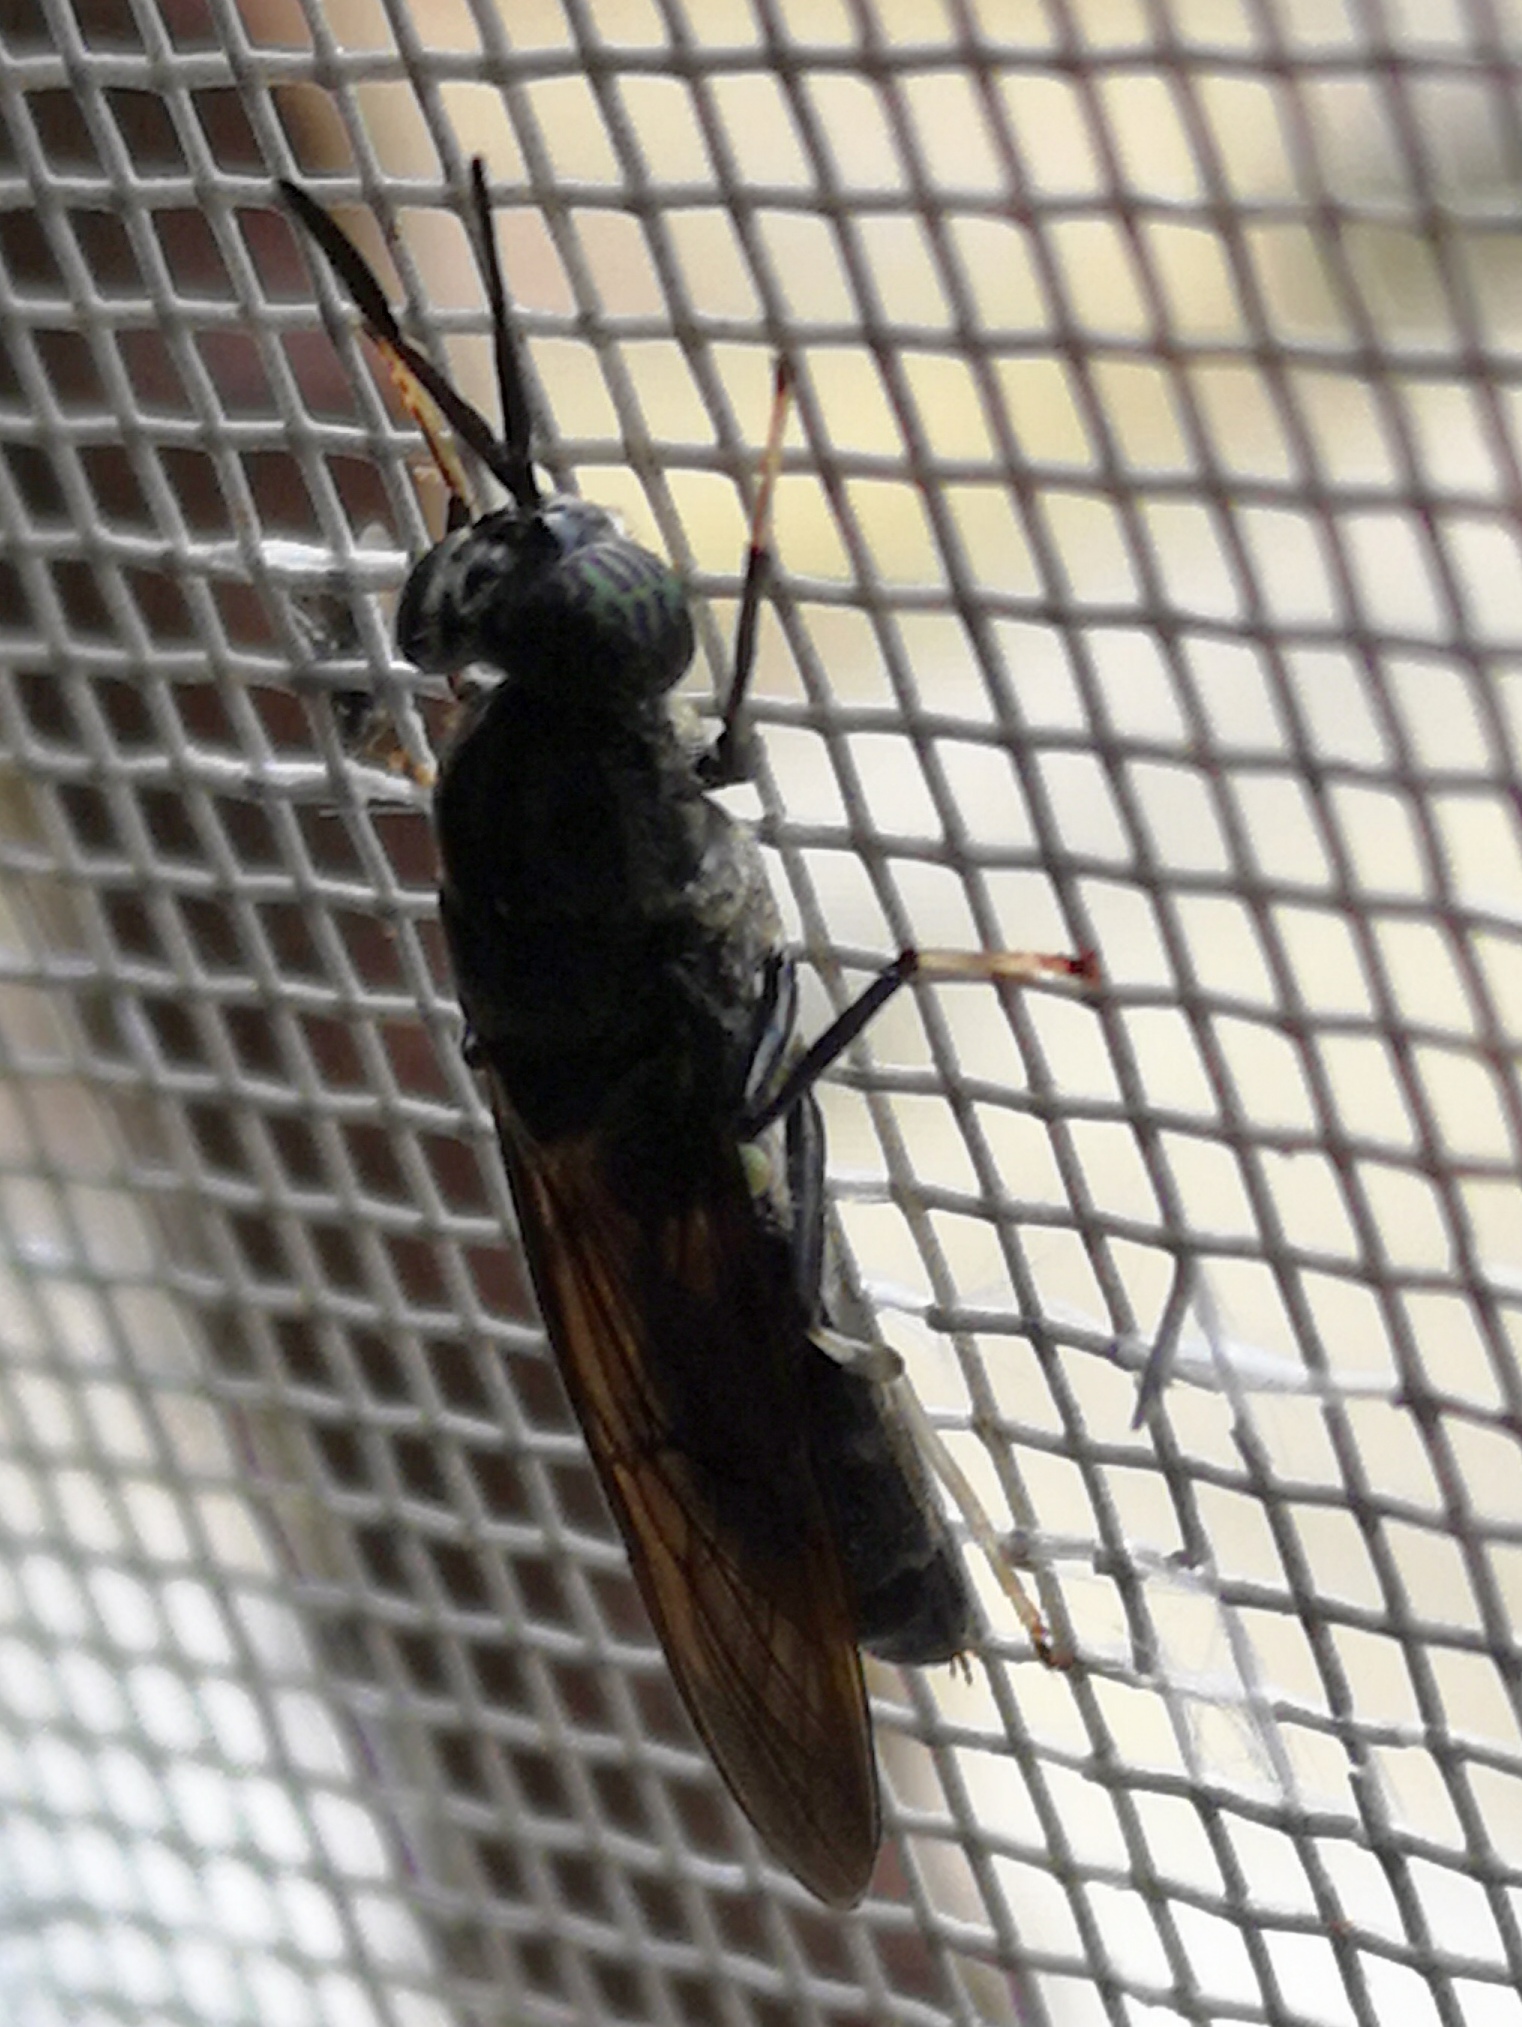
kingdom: Animalia
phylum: Arthropoda
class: Insecta
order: Diptera
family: Stratiomyidae
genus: Hermetia
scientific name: Hermetia illucens
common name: Black soldier fly
